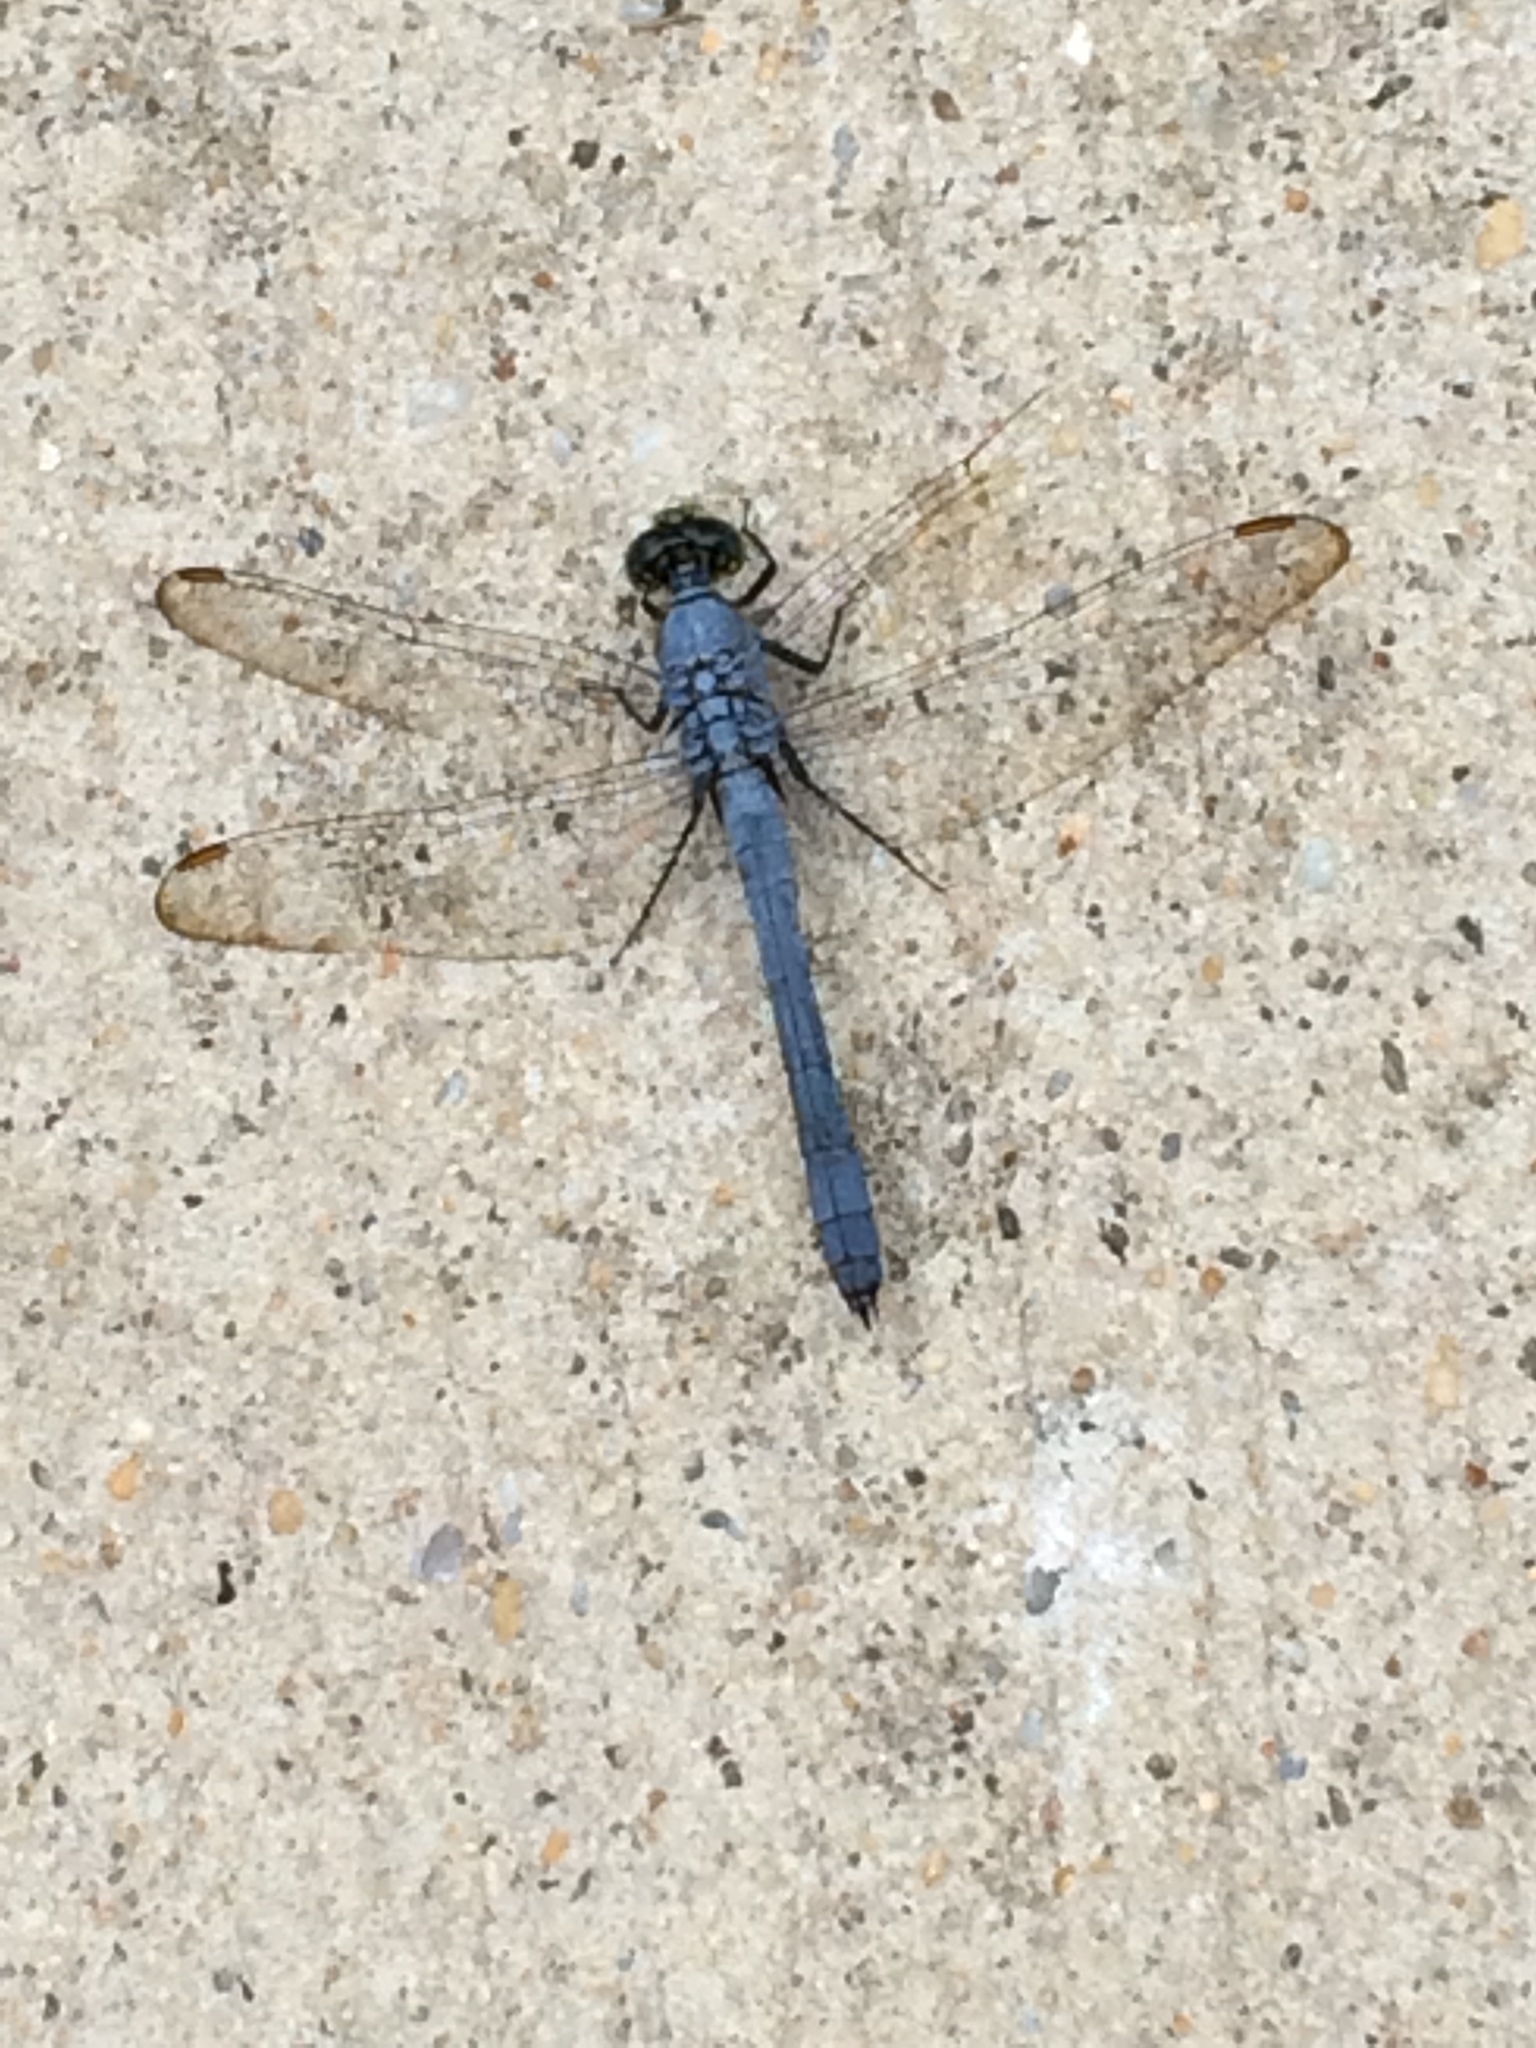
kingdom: Animalia
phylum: Arthropoda
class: Insecta
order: Odonata
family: Libellulidae
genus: Erythemis
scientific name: Erythemis simplicicollis
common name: Eastern pondhawk
